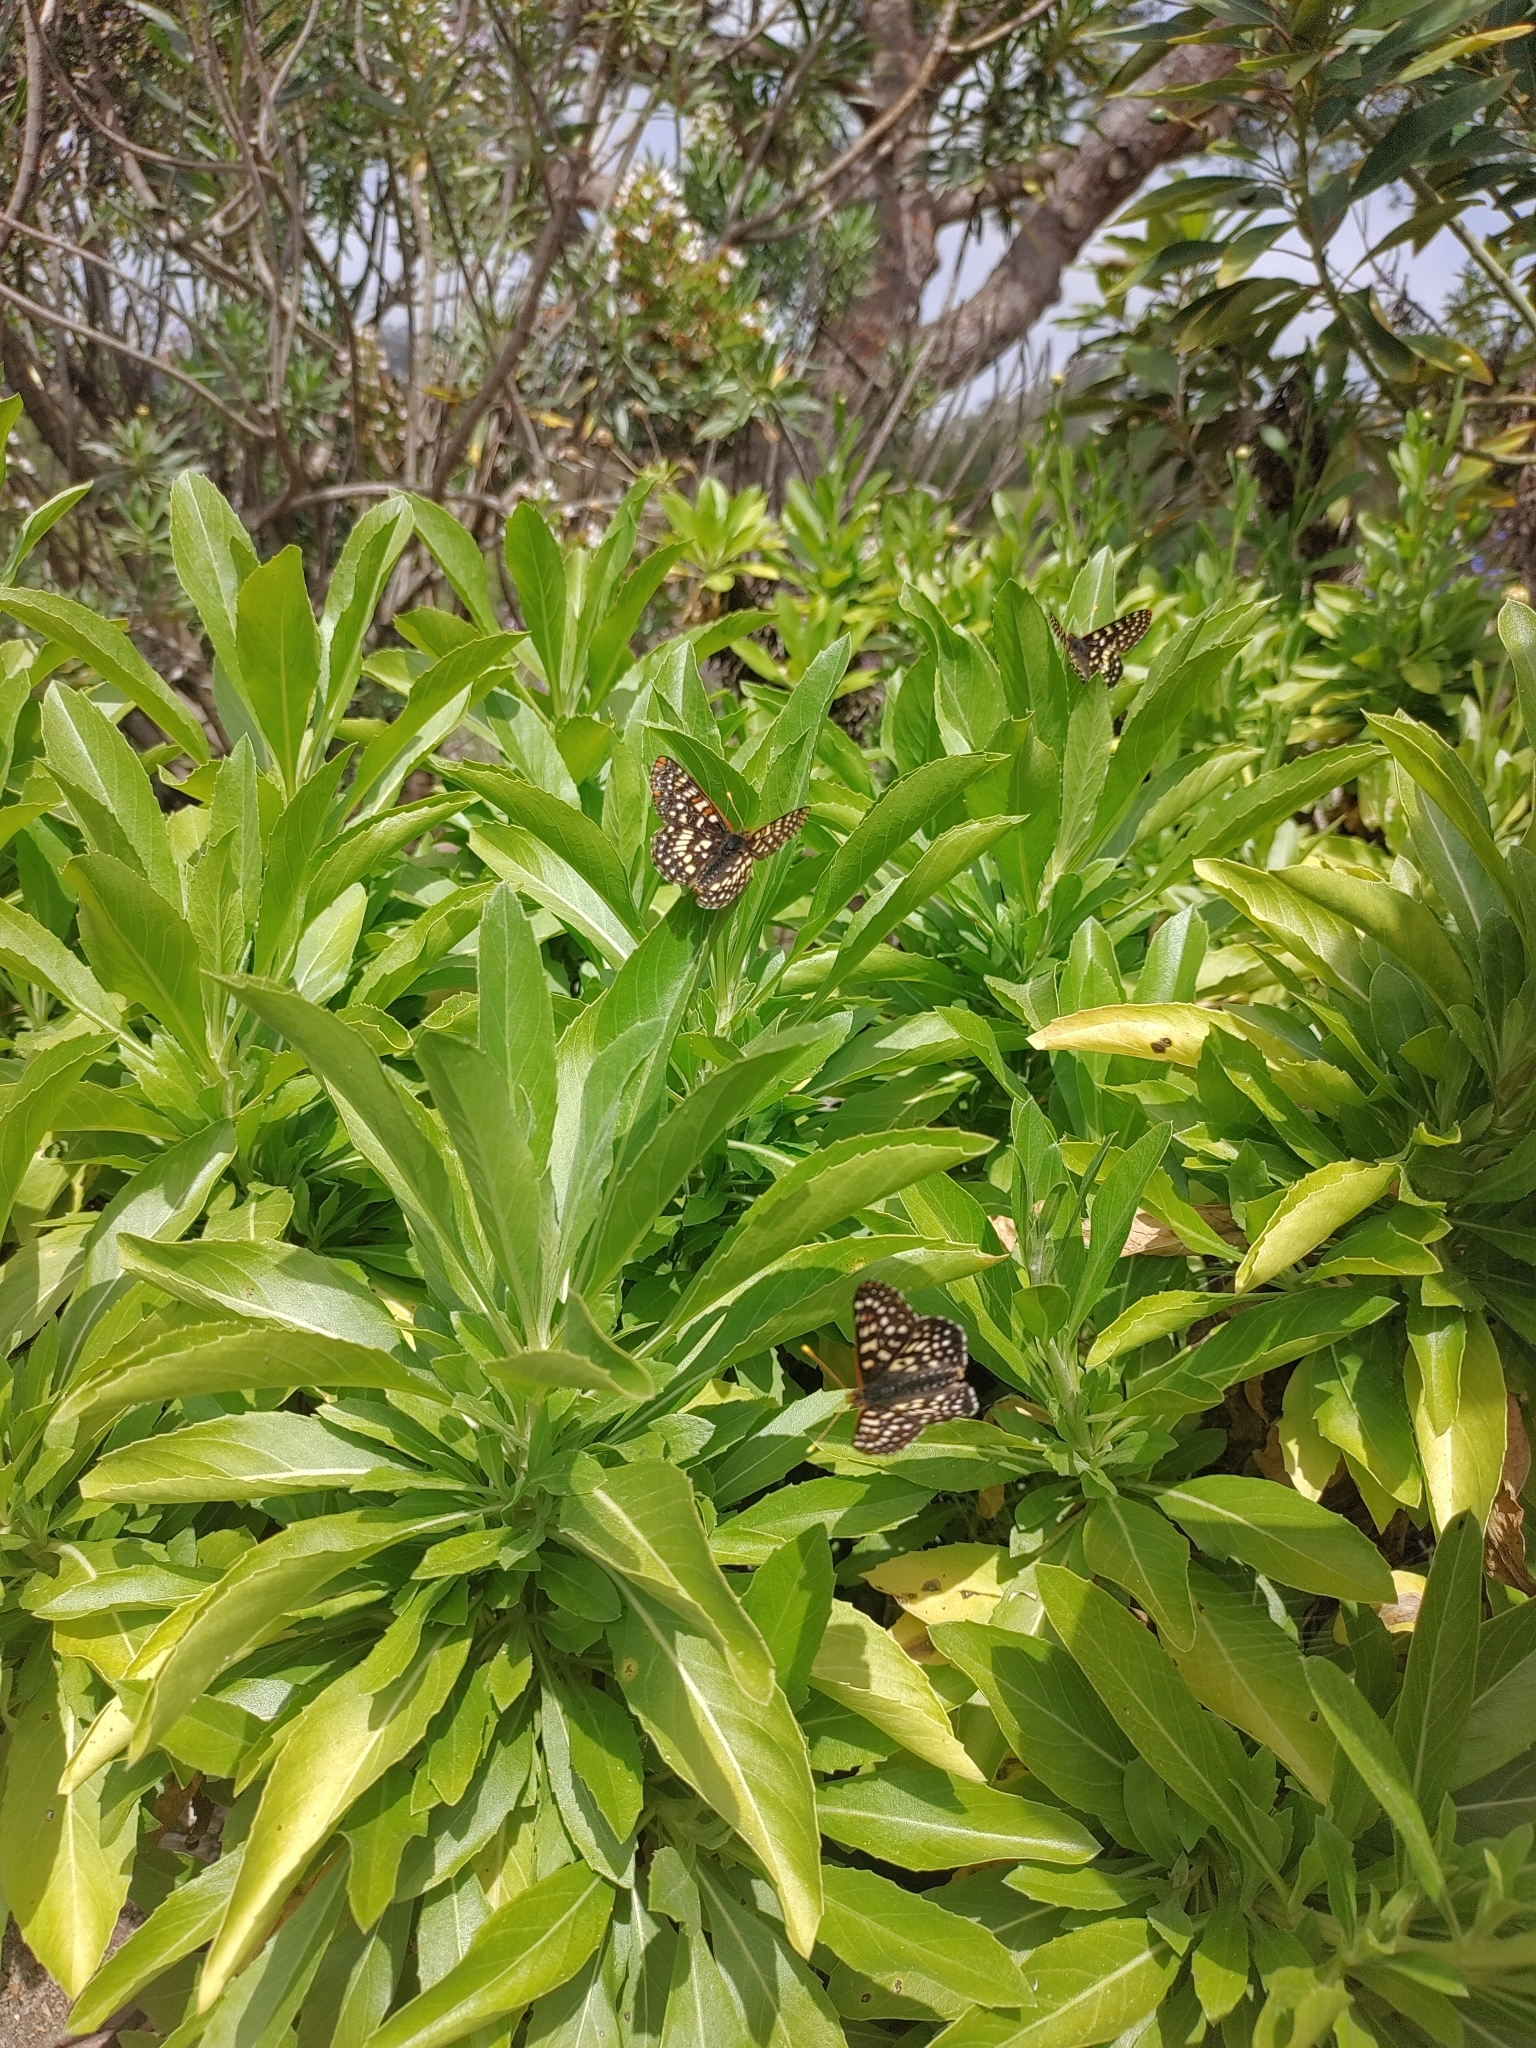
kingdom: Animalia
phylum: Arthropoda
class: Insecta
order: Lepidoptera
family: Nymphalidae
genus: Occidryas
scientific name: Occidryas chalcedona
